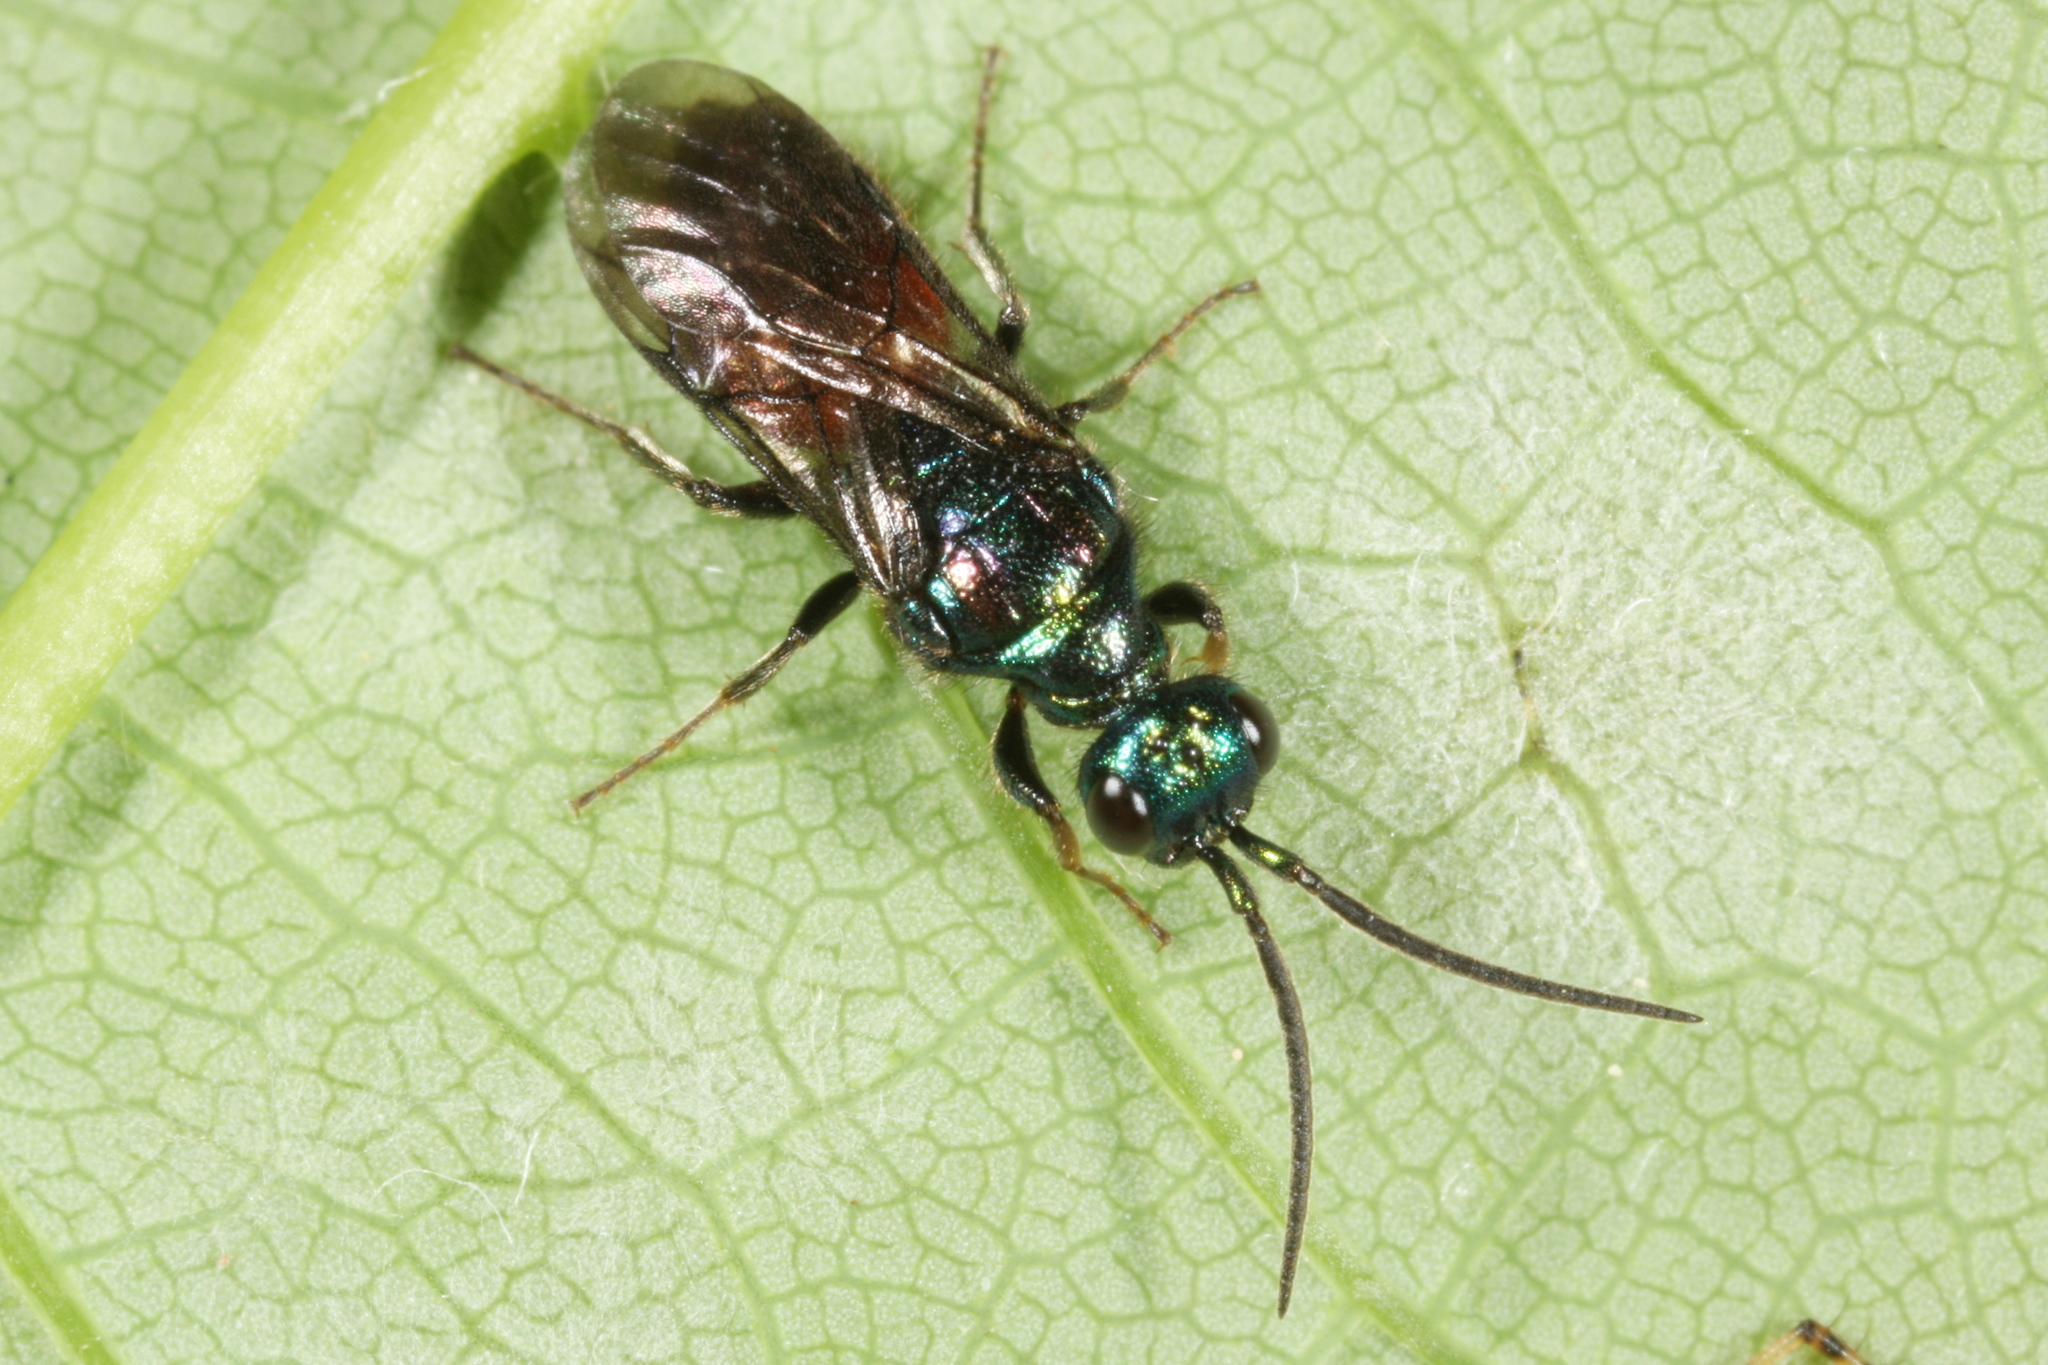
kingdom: Animalia
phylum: Arthropoda
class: Insecta
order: Hymenoptera
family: Chrysididae
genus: Cleptes
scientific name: Cleptes
